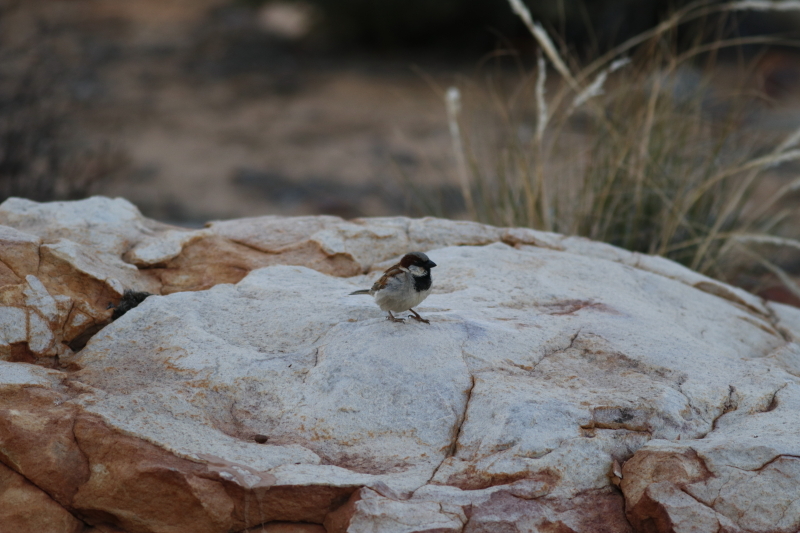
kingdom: Animalia
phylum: Chordata
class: Aves
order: Passeriformes
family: Passeridae
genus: Passer
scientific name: Passer domesticus
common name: House sparrow
